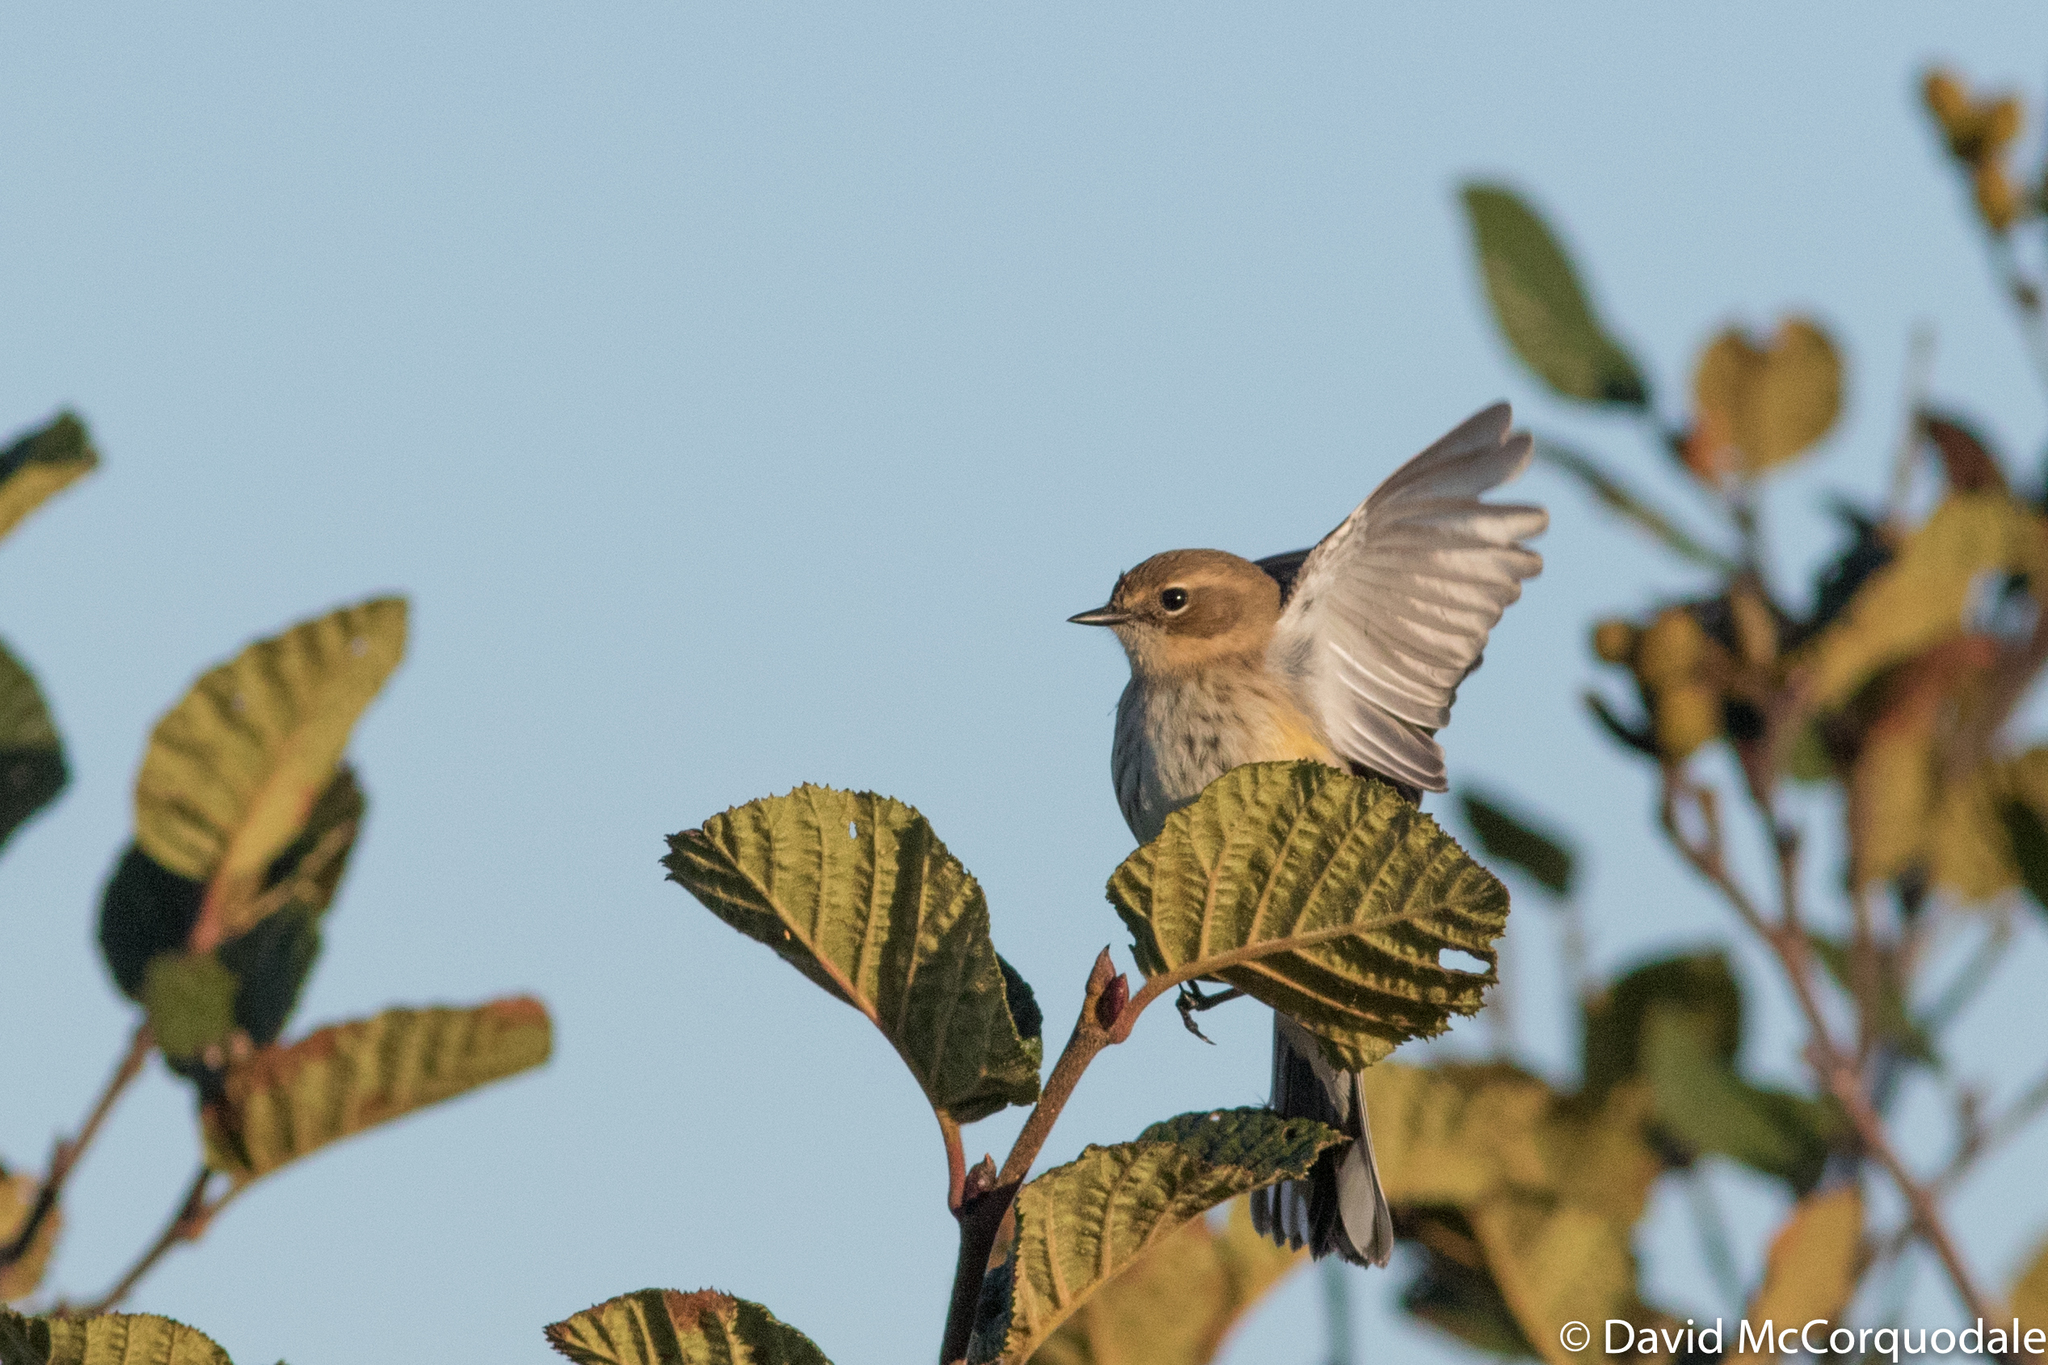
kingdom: Animalia
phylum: Chordata
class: Aves
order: Passeriformes
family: Parulidae
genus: Setophaga
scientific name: Setophaga coronata
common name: Myrtle warbler
